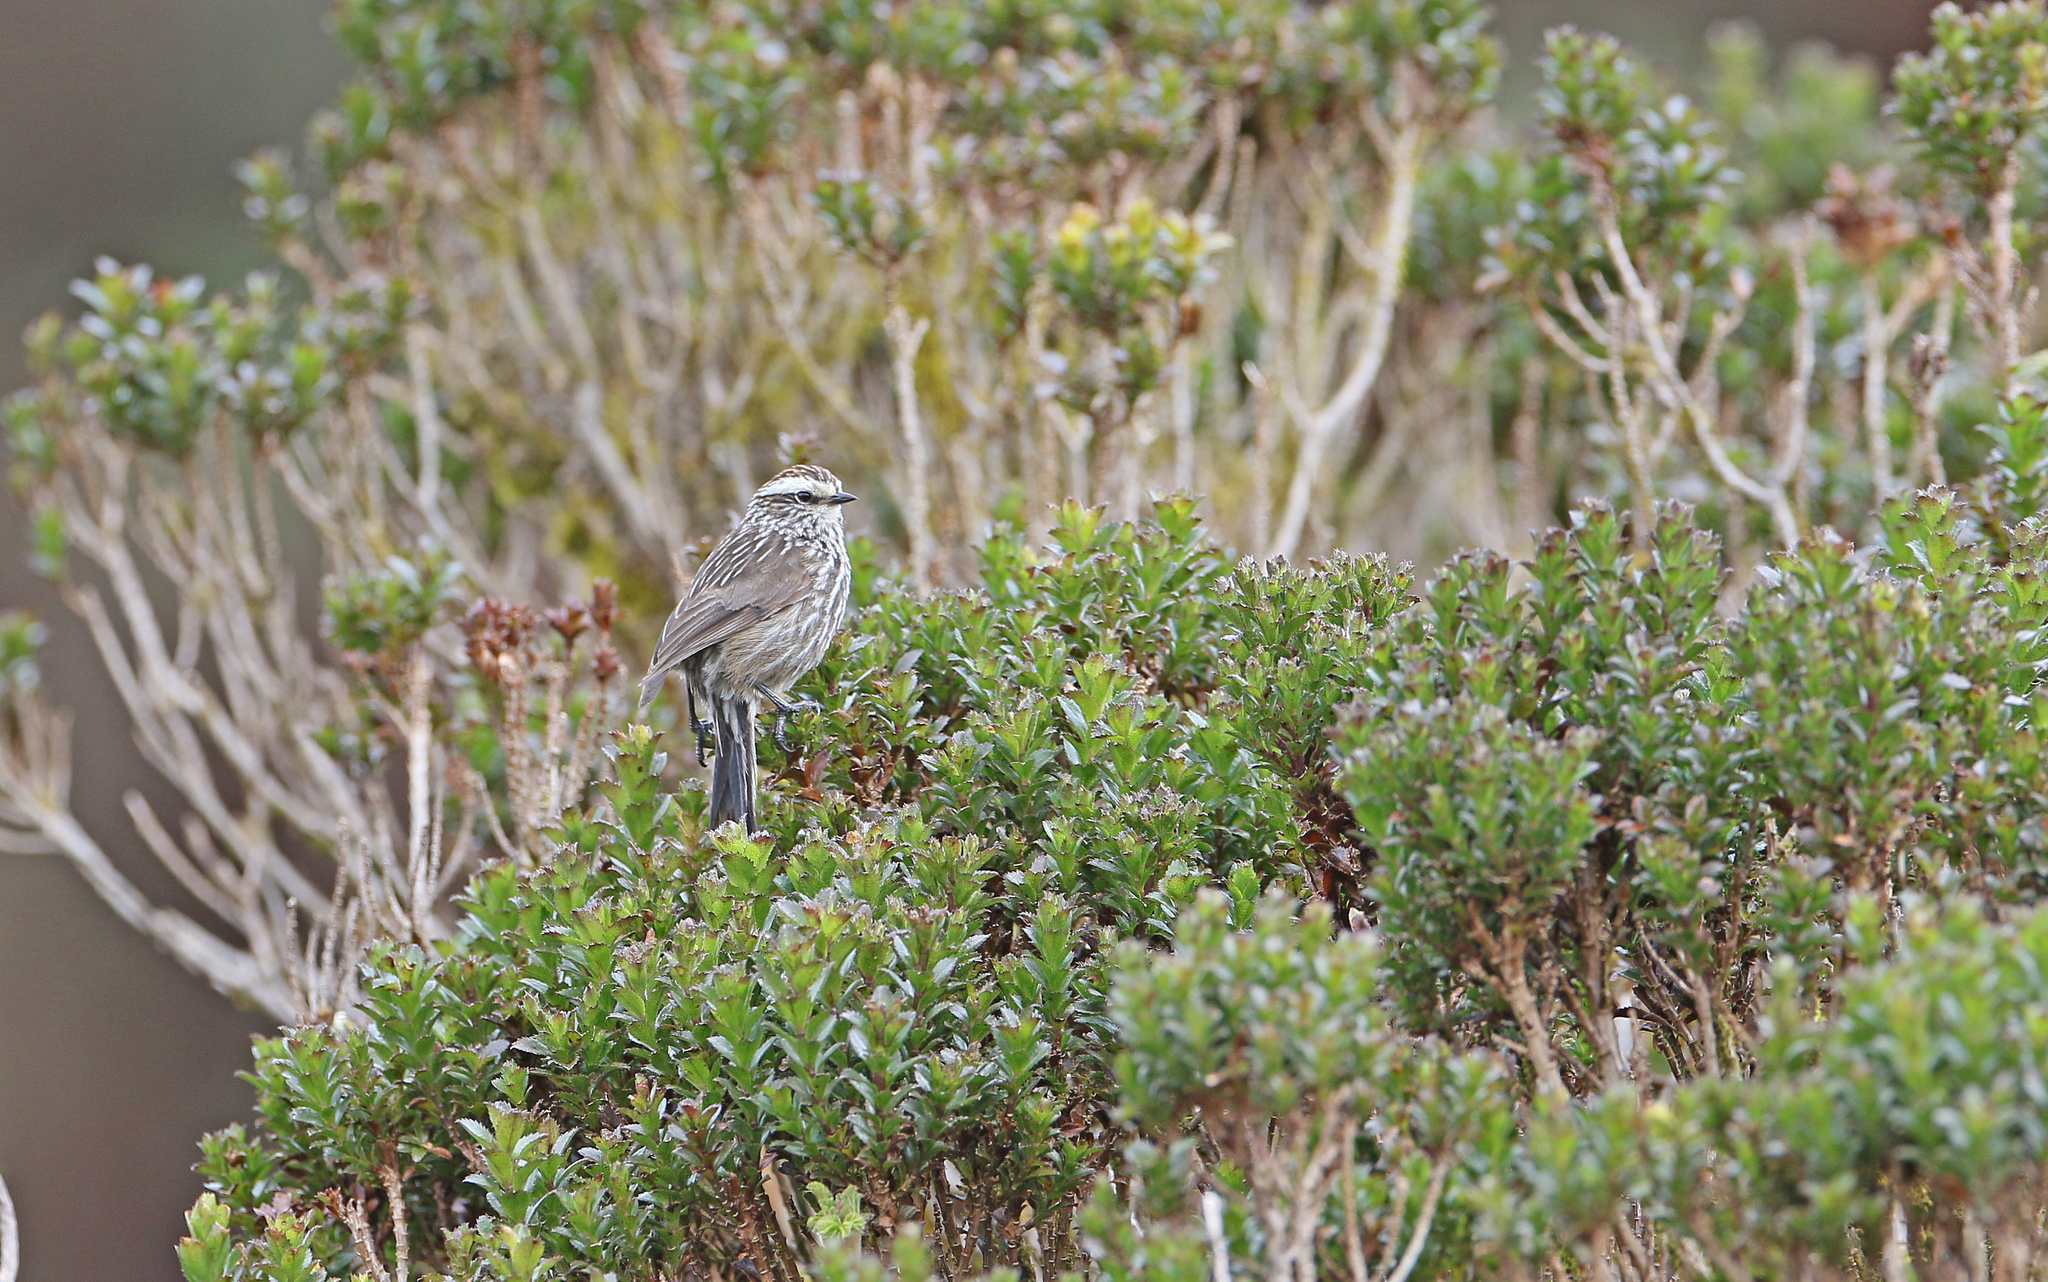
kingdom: Animalia
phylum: Chordata
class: Aves
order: Passeriformes
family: Furnariidae
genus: Leptasthenura
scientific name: Leptasthenura andicola
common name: Andean tit-spinetail
